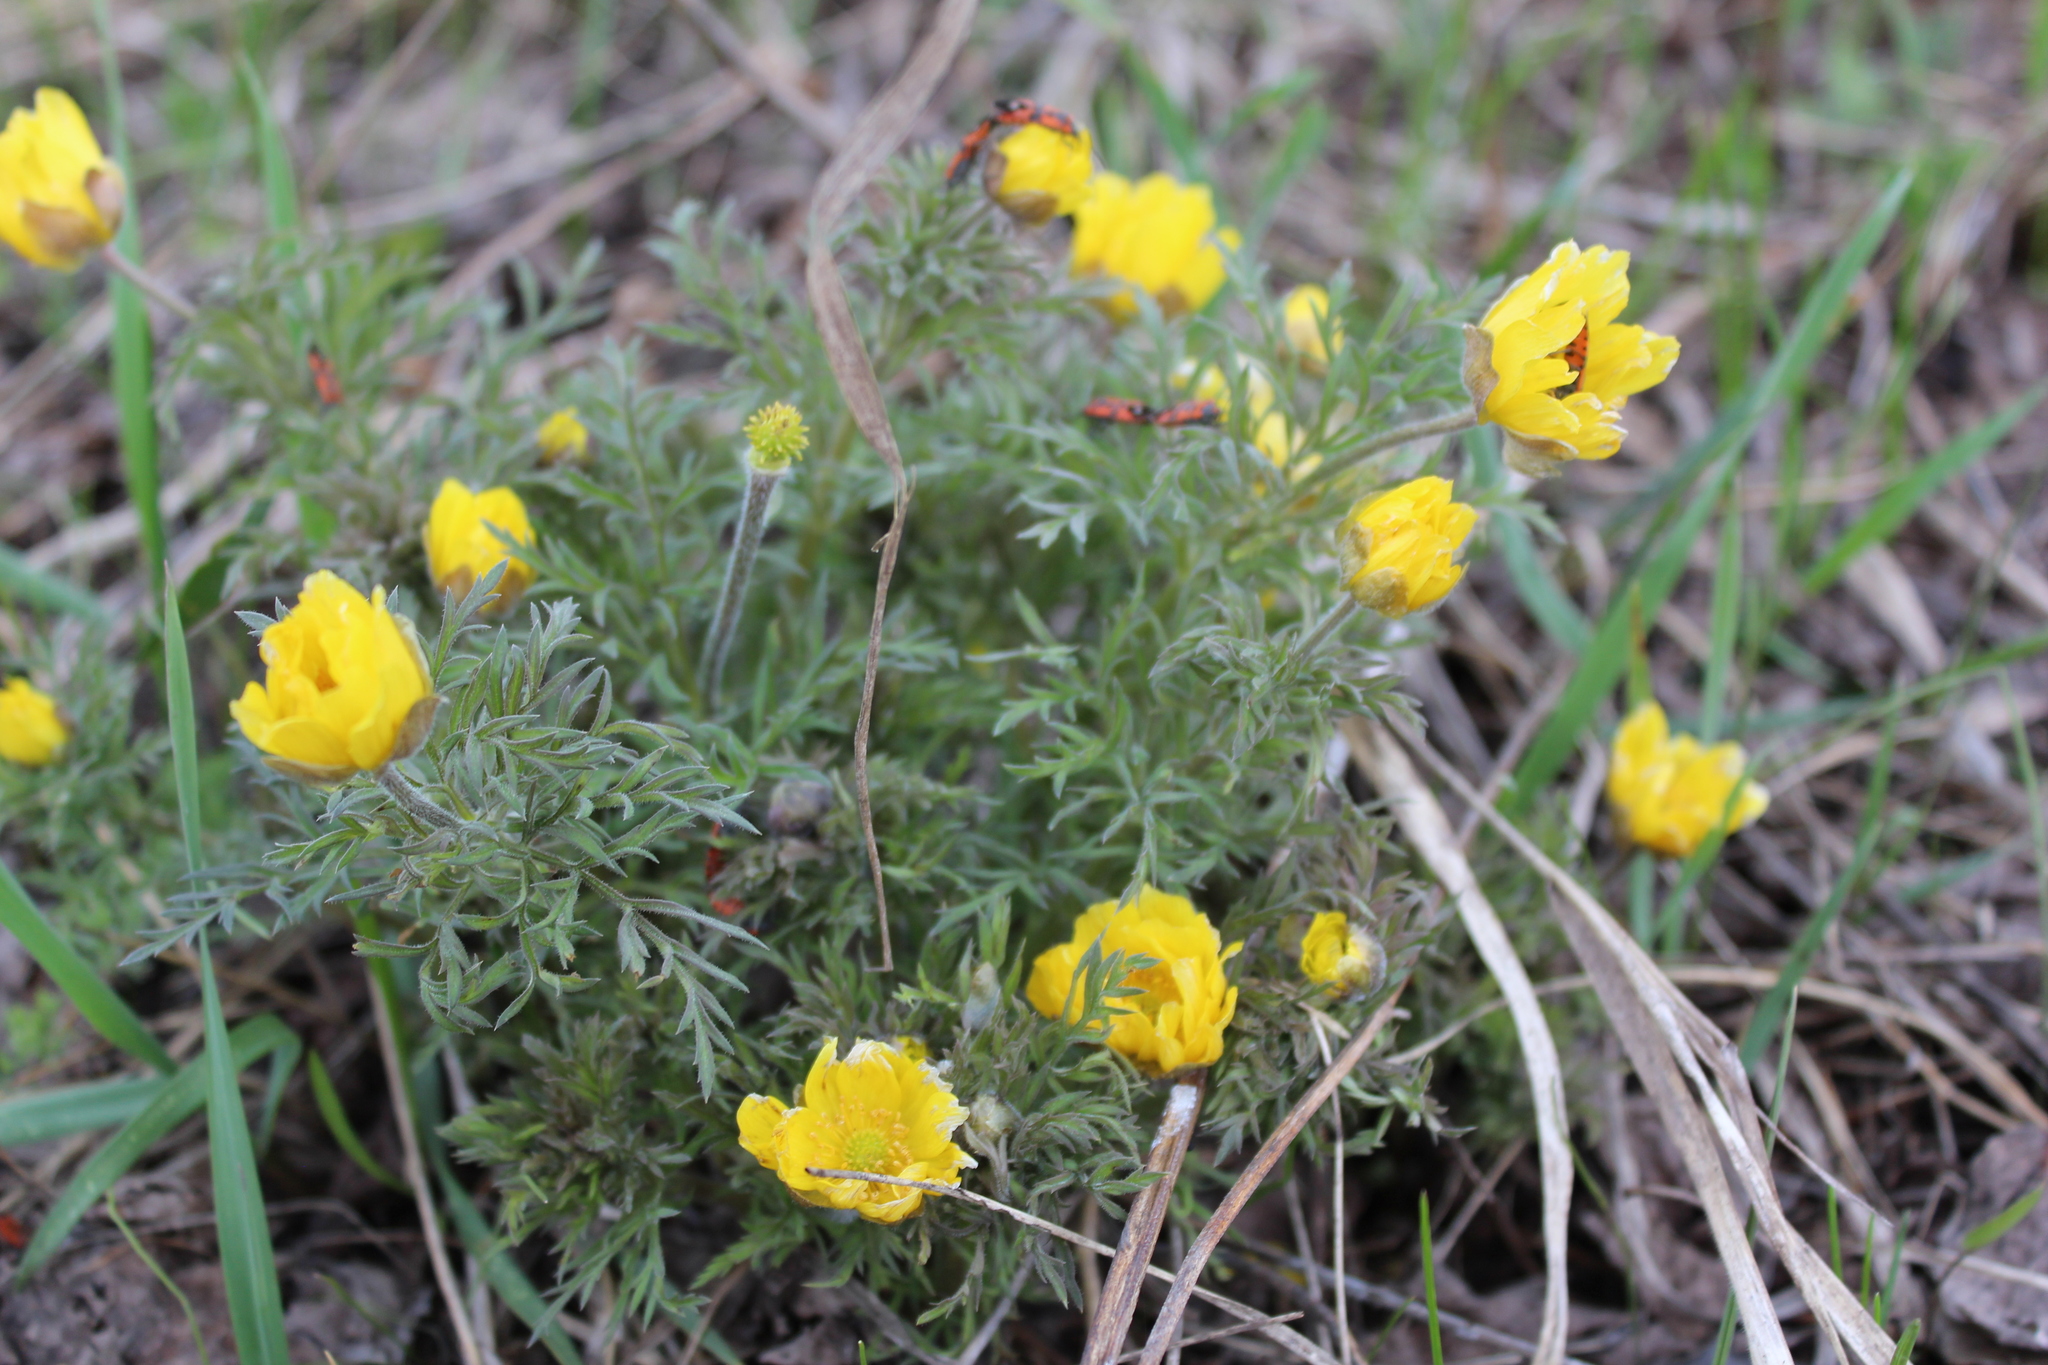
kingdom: Plantae
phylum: Tracheophyta
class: Magnoliopsida
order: Ranunculales
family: Ranunculaceae
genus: Adonis
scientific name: Adonis volgensis
